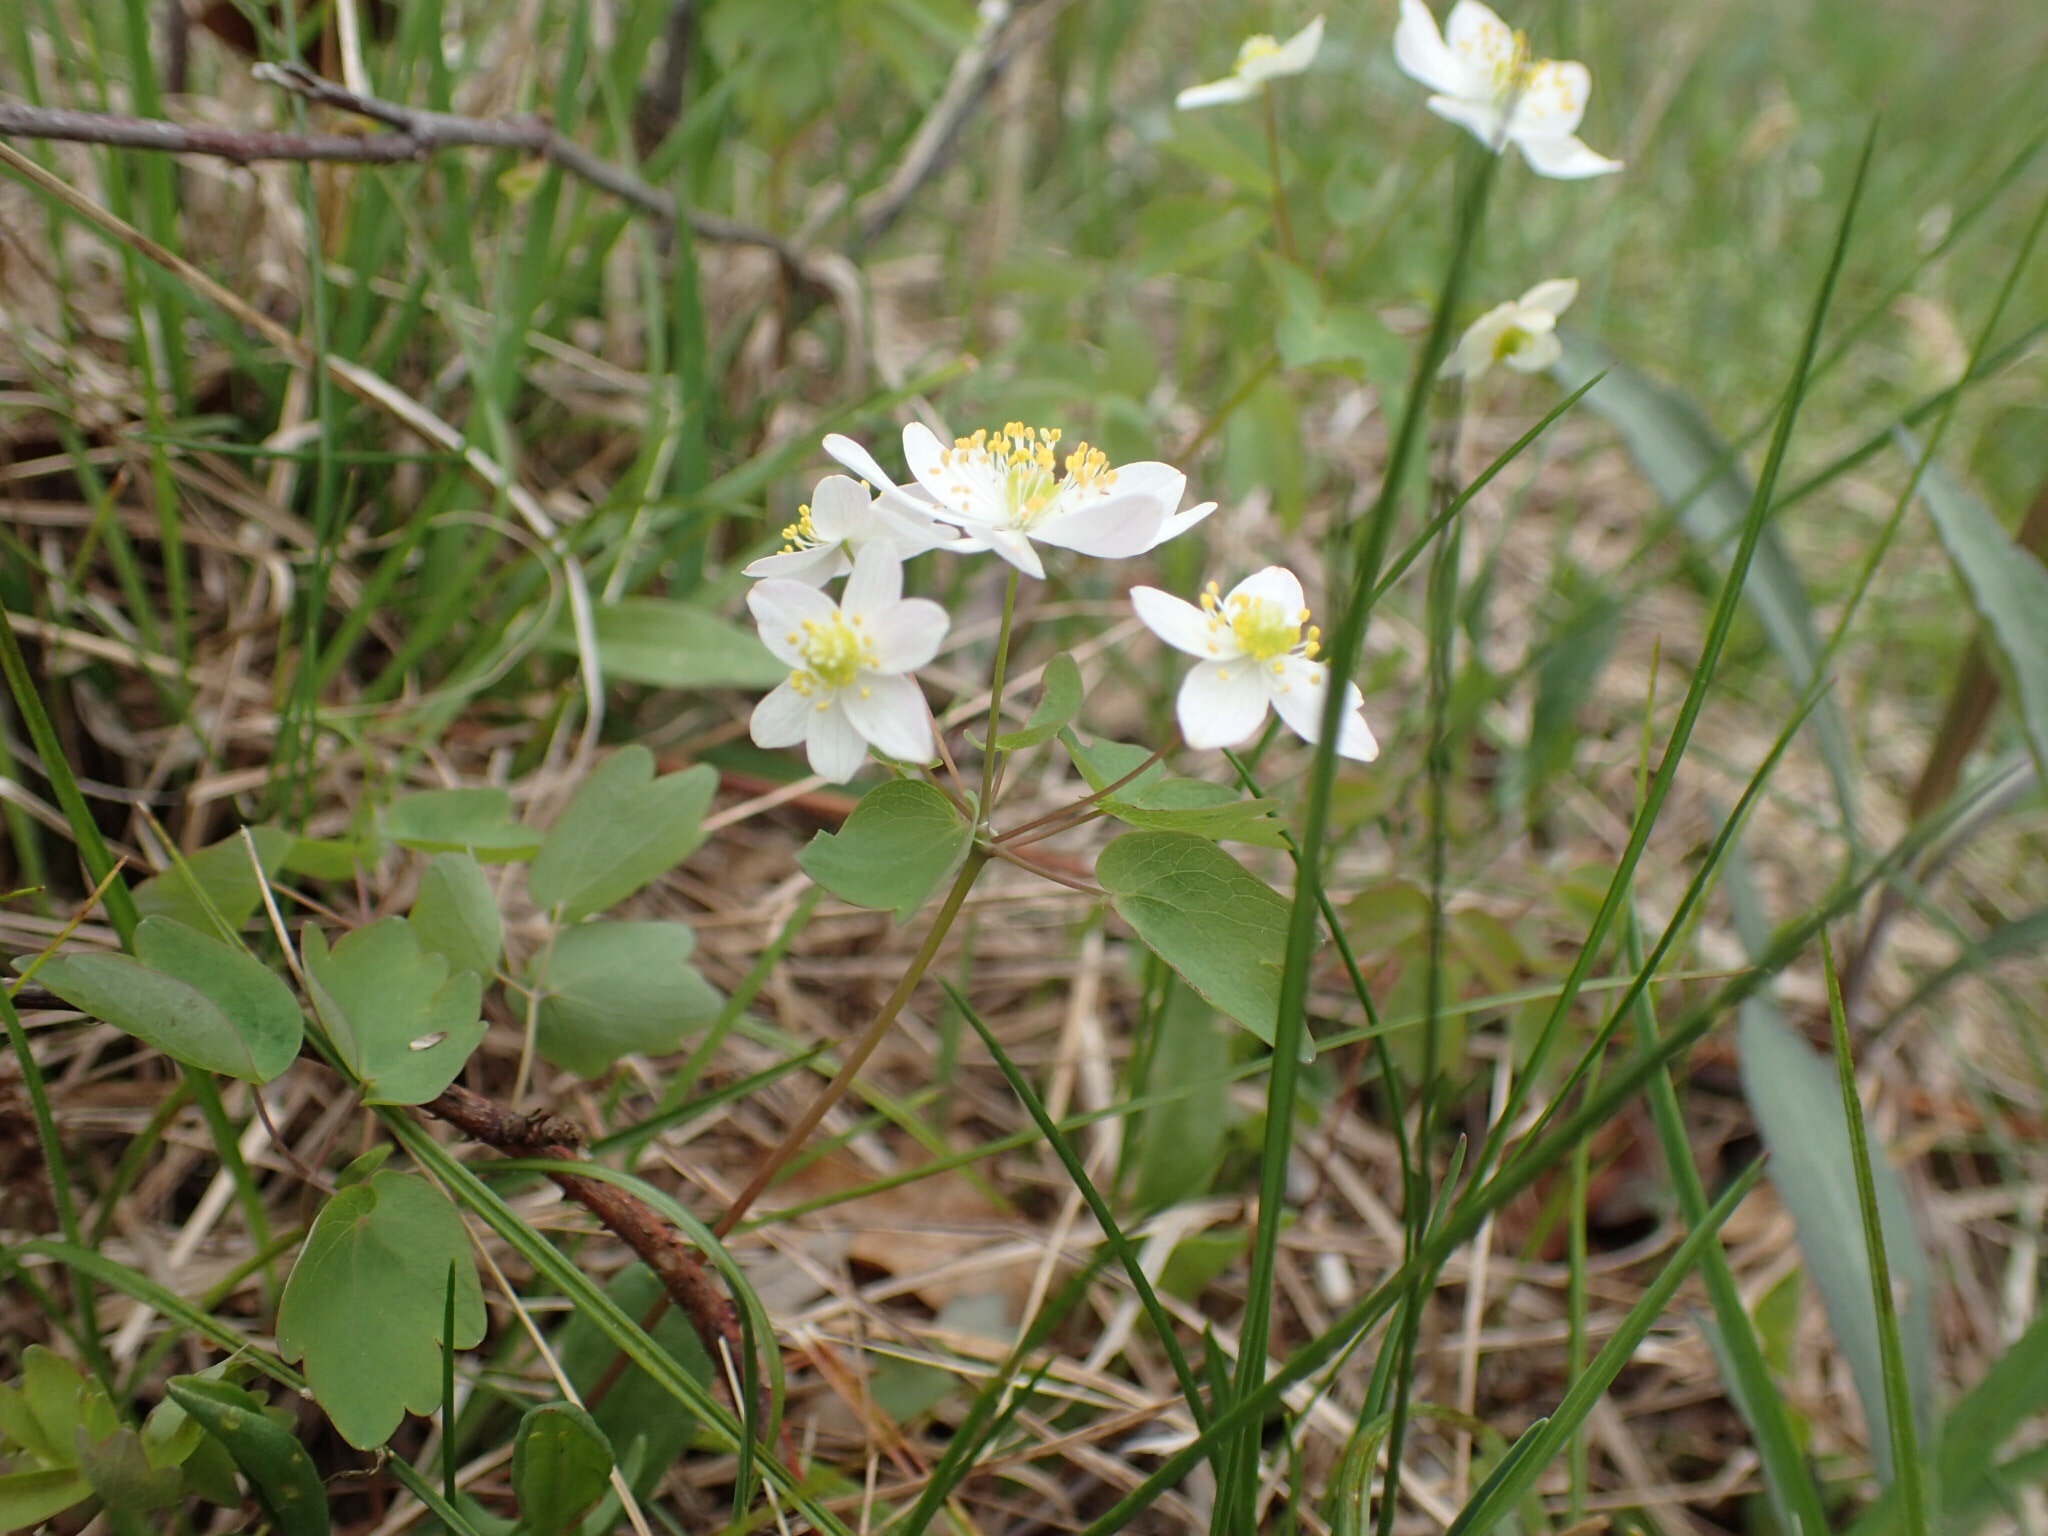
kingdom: Plantae
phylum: Tracheophyta
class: Magnoliopsida
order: Ranunculales
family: Ranunculaceae
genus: Thalictrum
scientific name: Thalictrum thalictroides
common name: Rue-anemone
